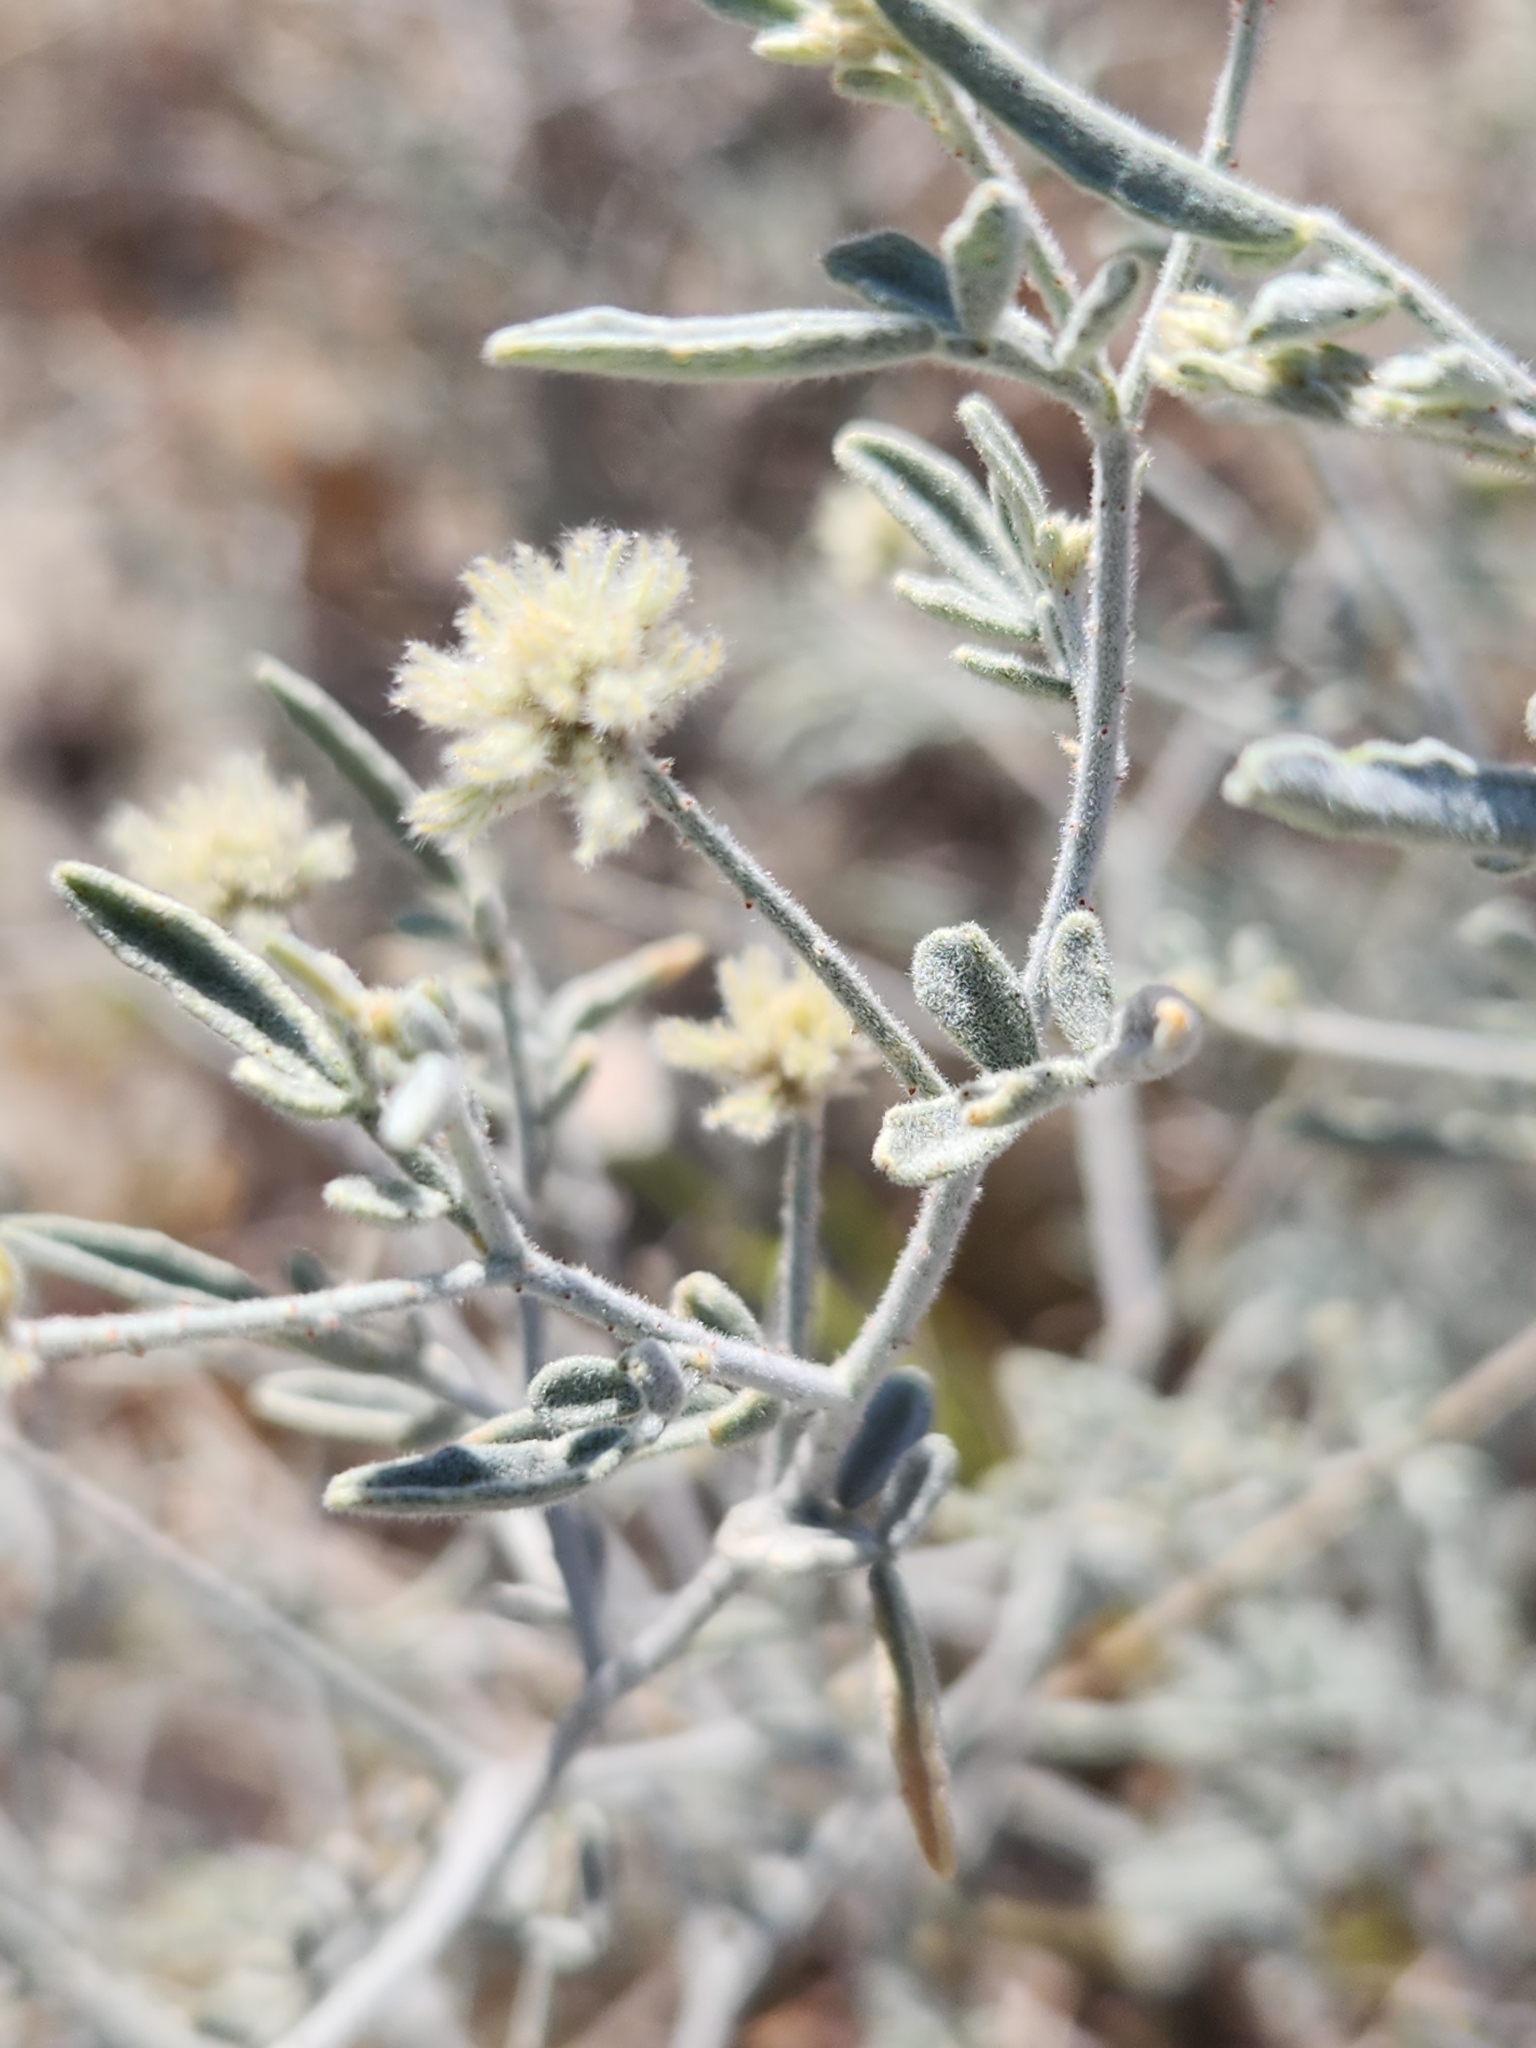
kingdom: Plantae
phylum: Tracheophyta
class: Magnoliopsida
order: Fabales
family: Fabaceae
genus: Psorothamnus
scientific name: Psorothamnus emoryi
